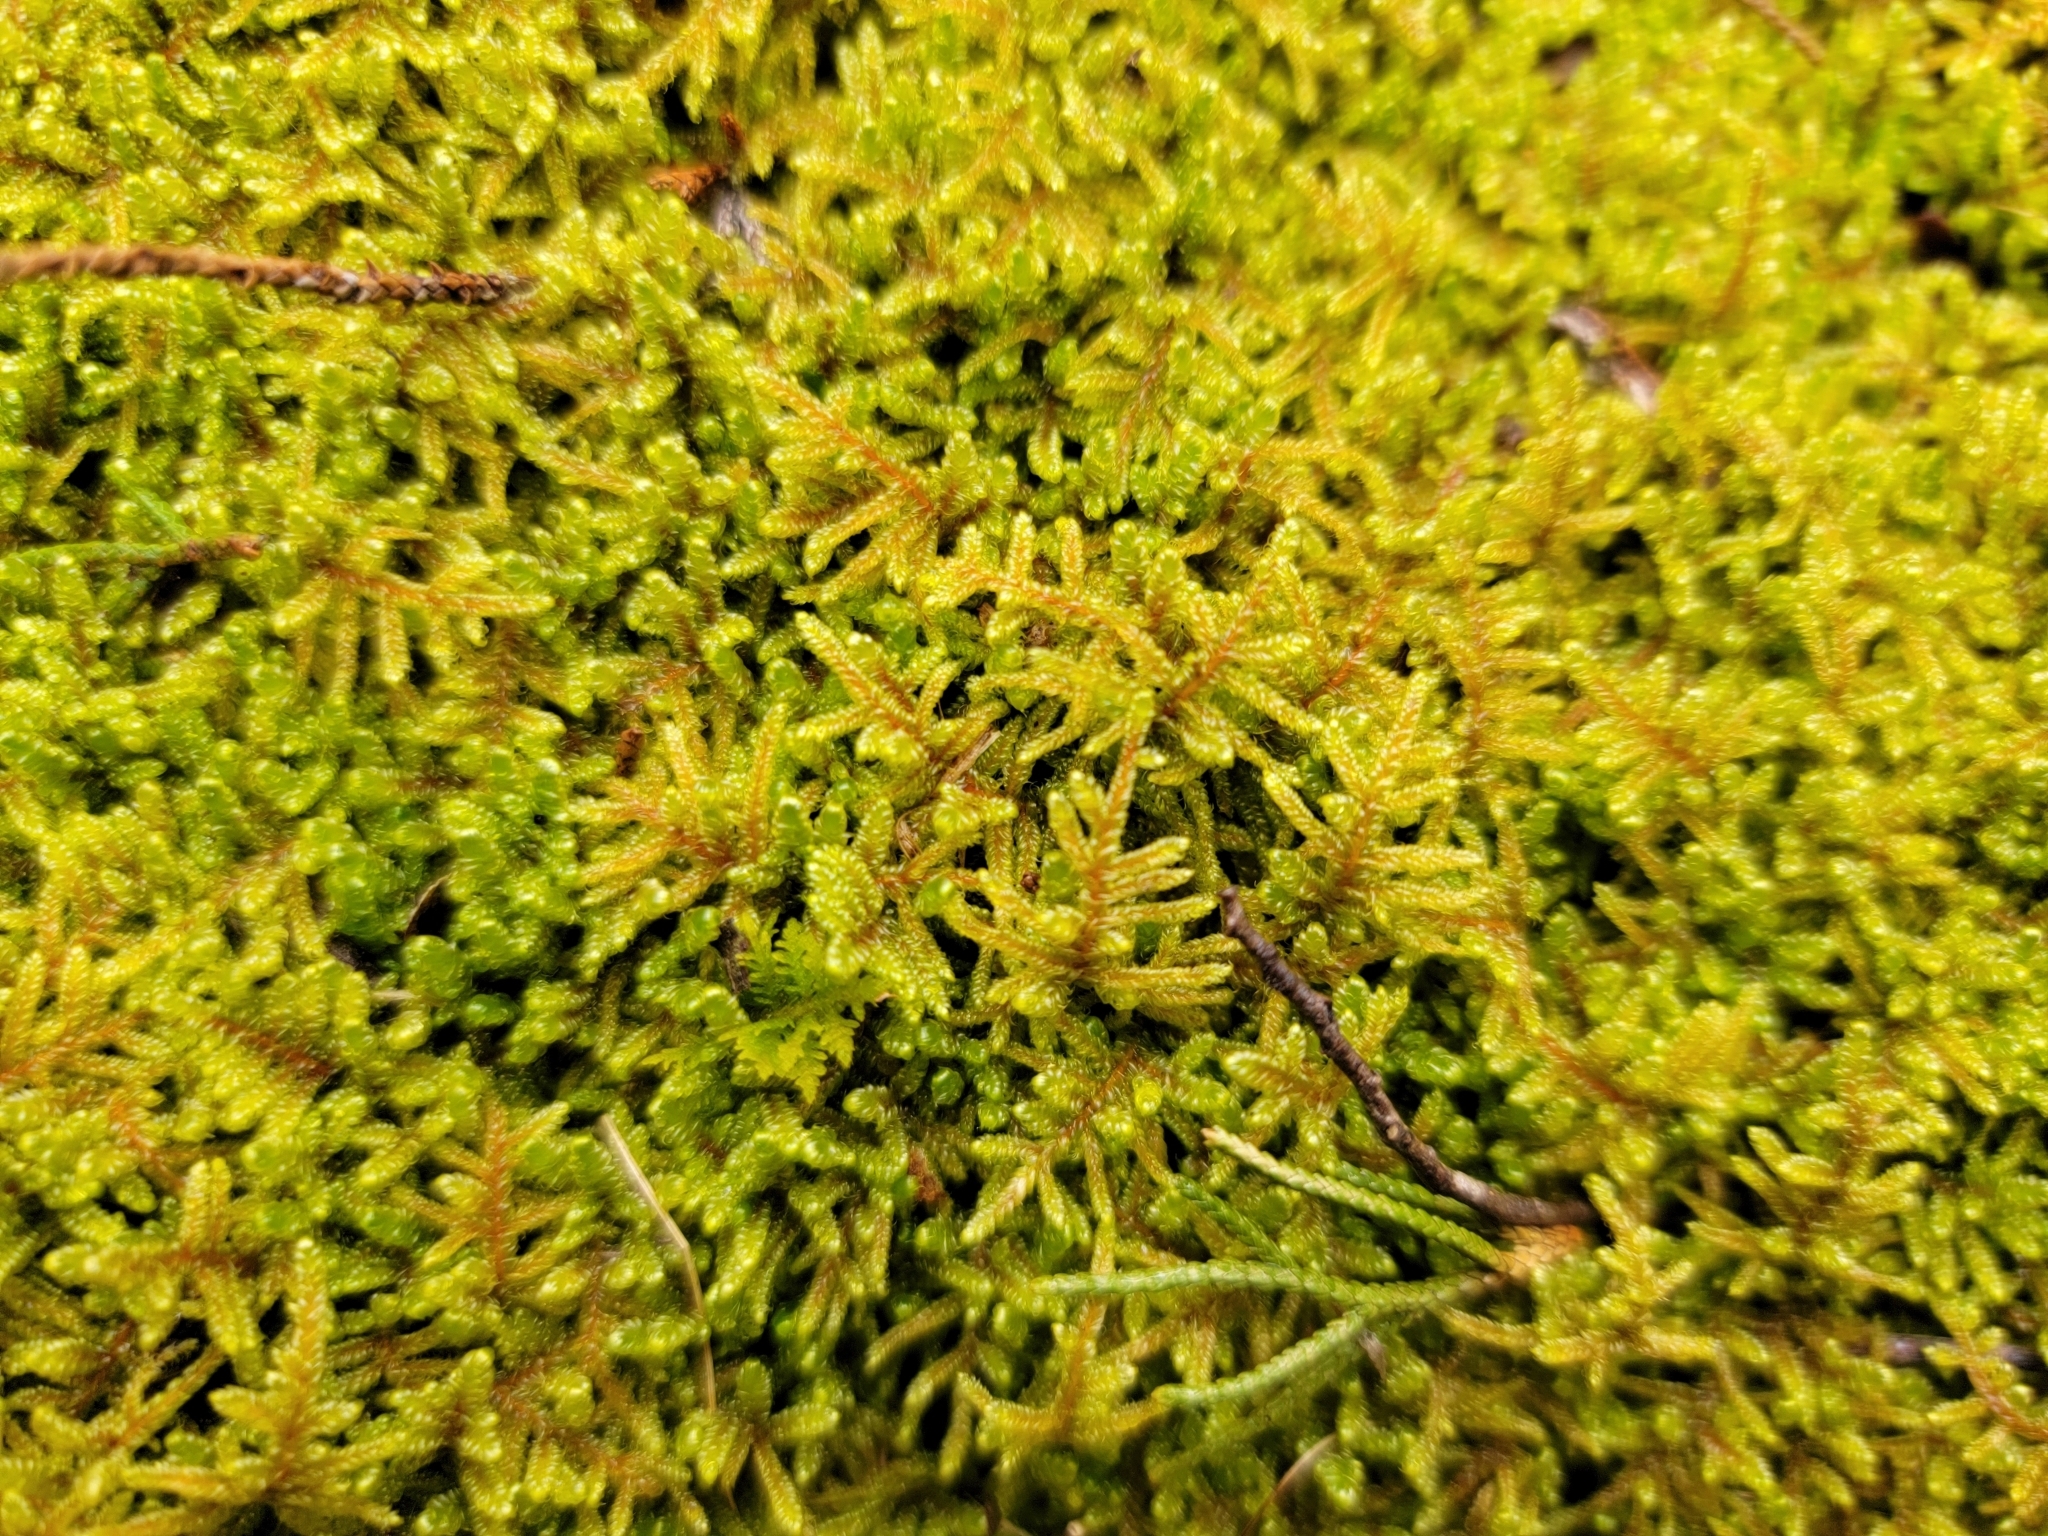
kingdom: Plantae
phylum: Bryophyta
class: Bryopsida
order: Hypnales
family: Callicladiaceae
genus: Callicladium
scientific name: Callicladium imponens
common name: Brocade moss
